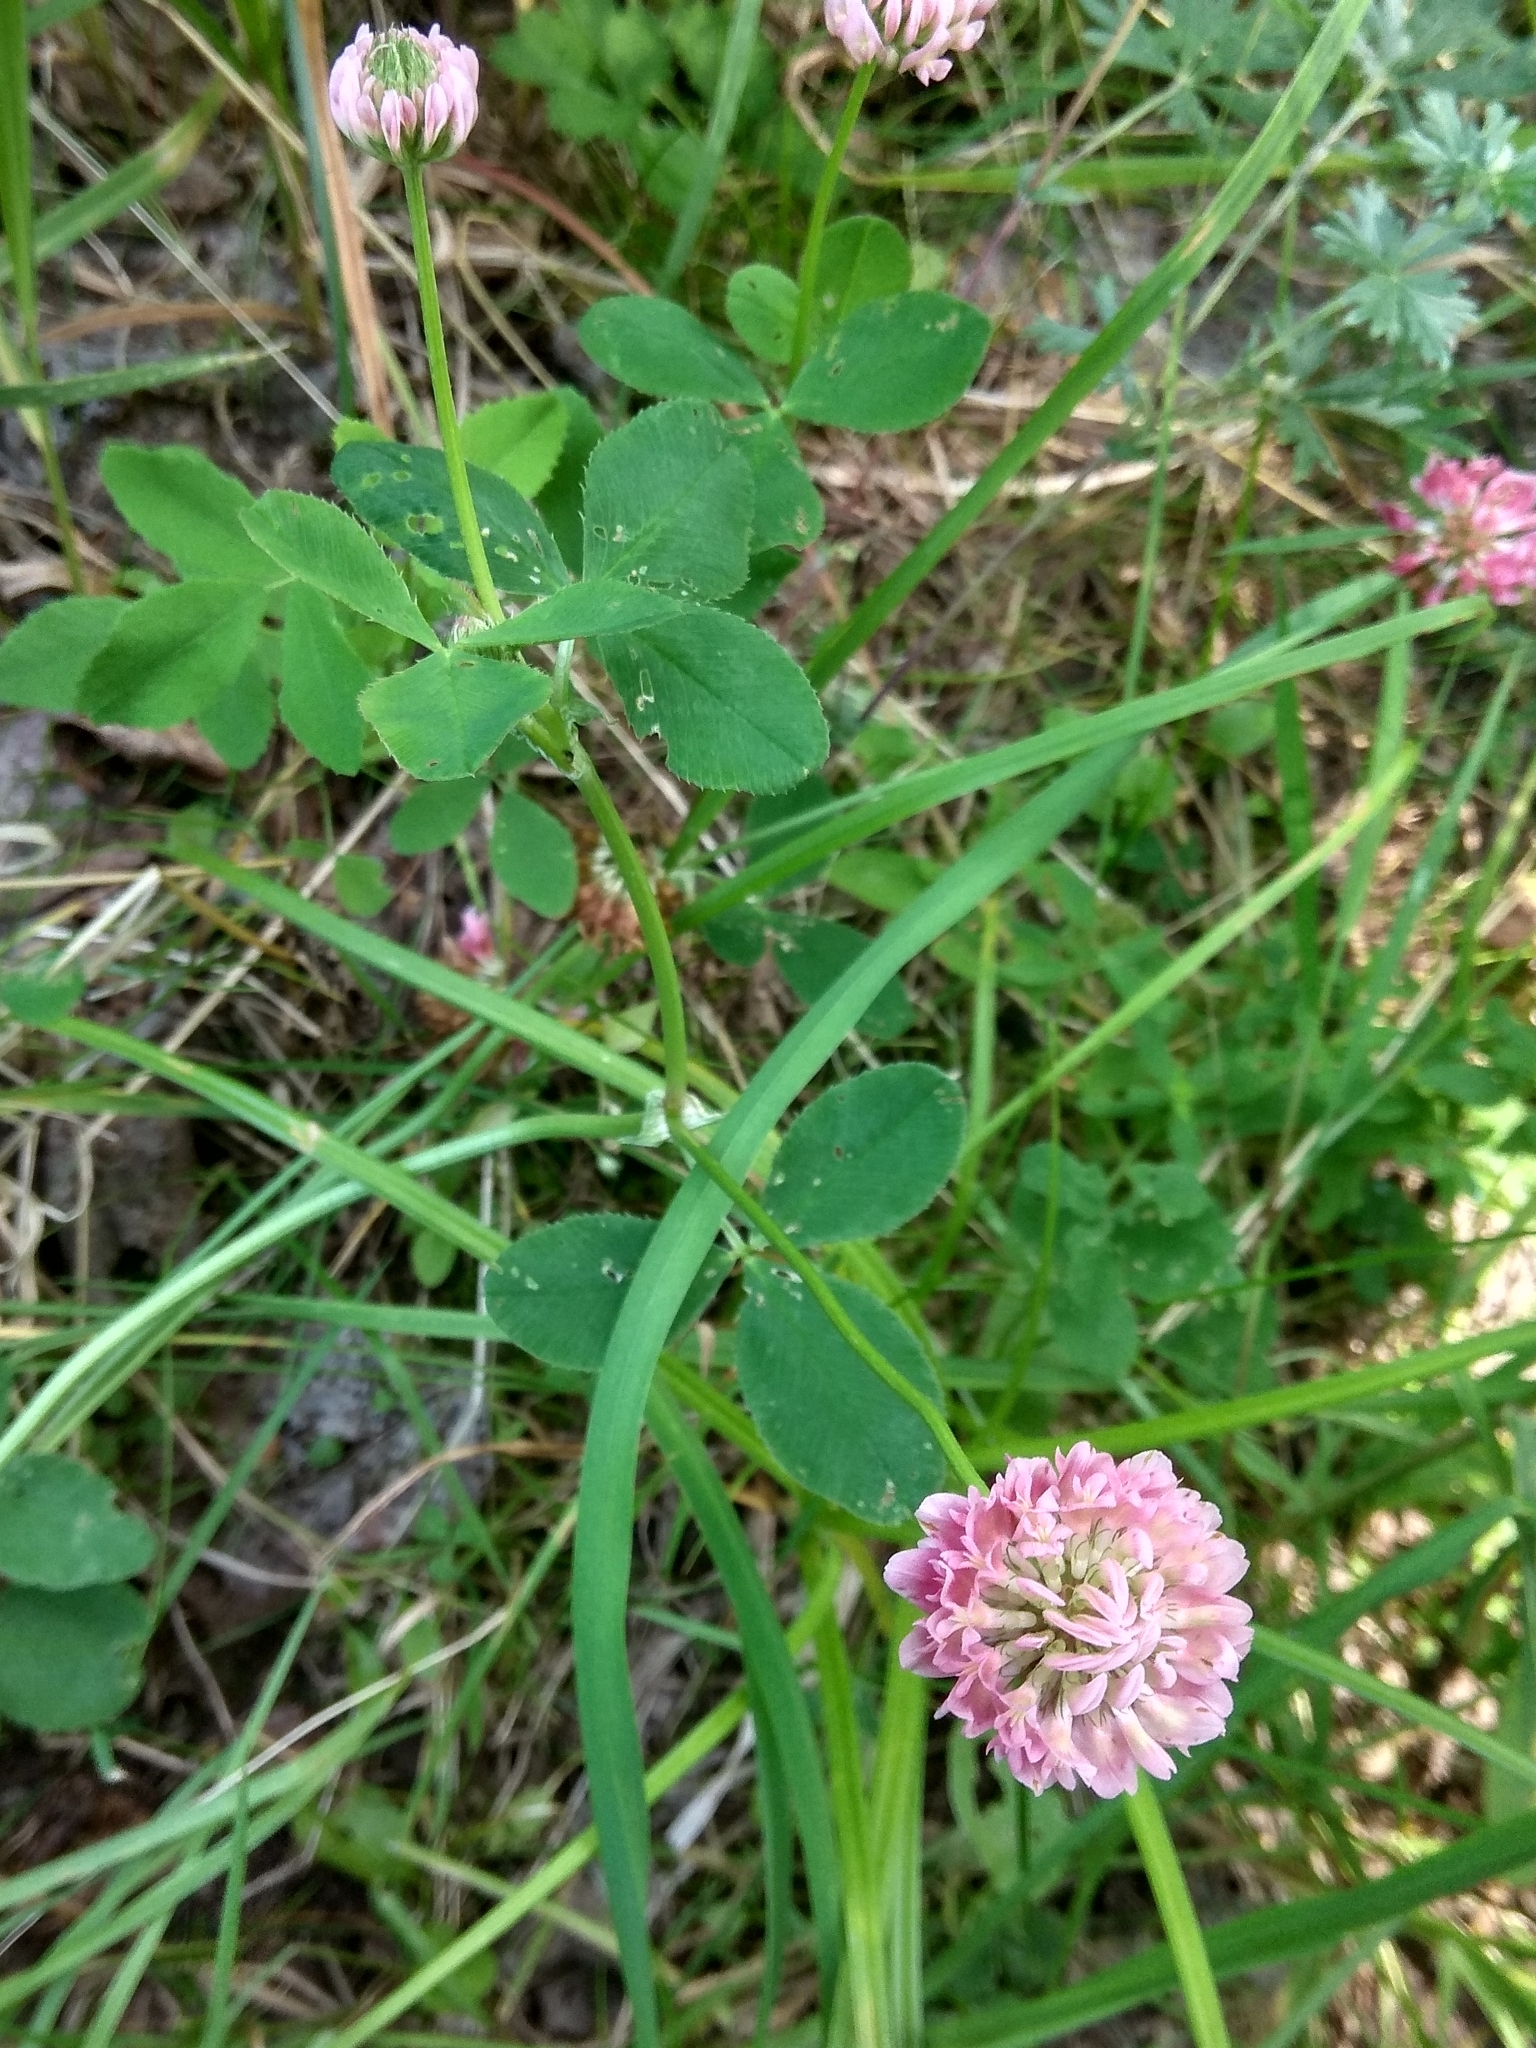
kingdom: Plantae
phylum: Tracheophyta
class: Magnoliopsida
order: Fabales
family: Fabaceae
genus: Trifolium
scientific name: Trifolium hybridum
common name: Alsike clover
